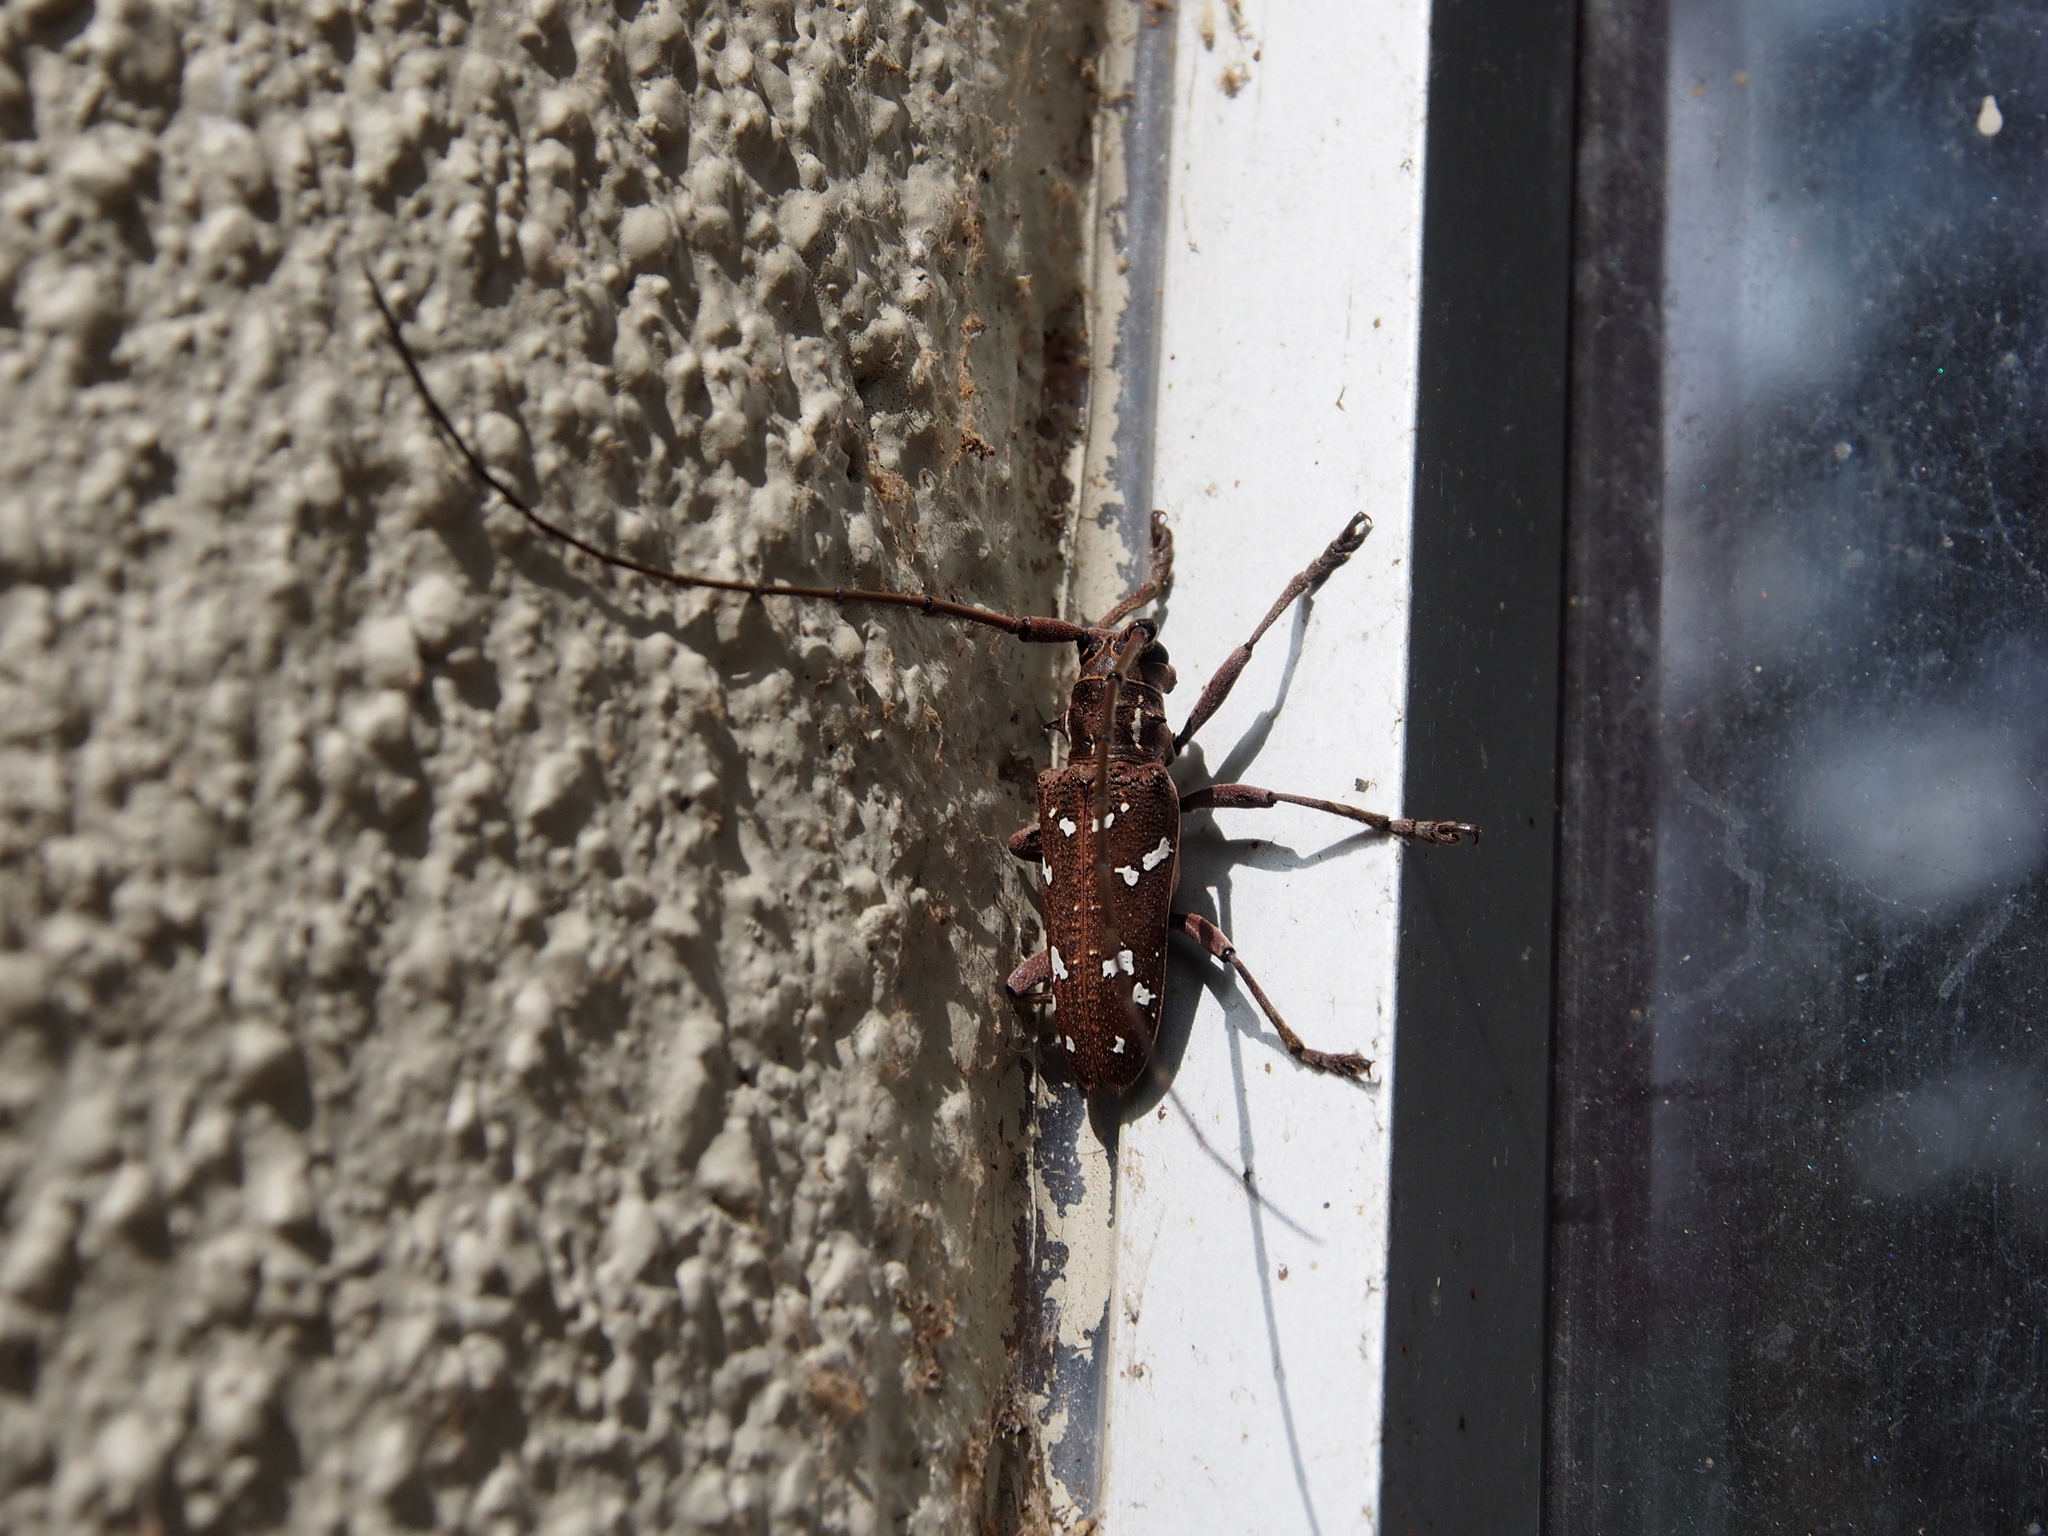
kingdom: Animalia
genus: Hammatoderus
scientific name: Hammatoderus thoracicus
